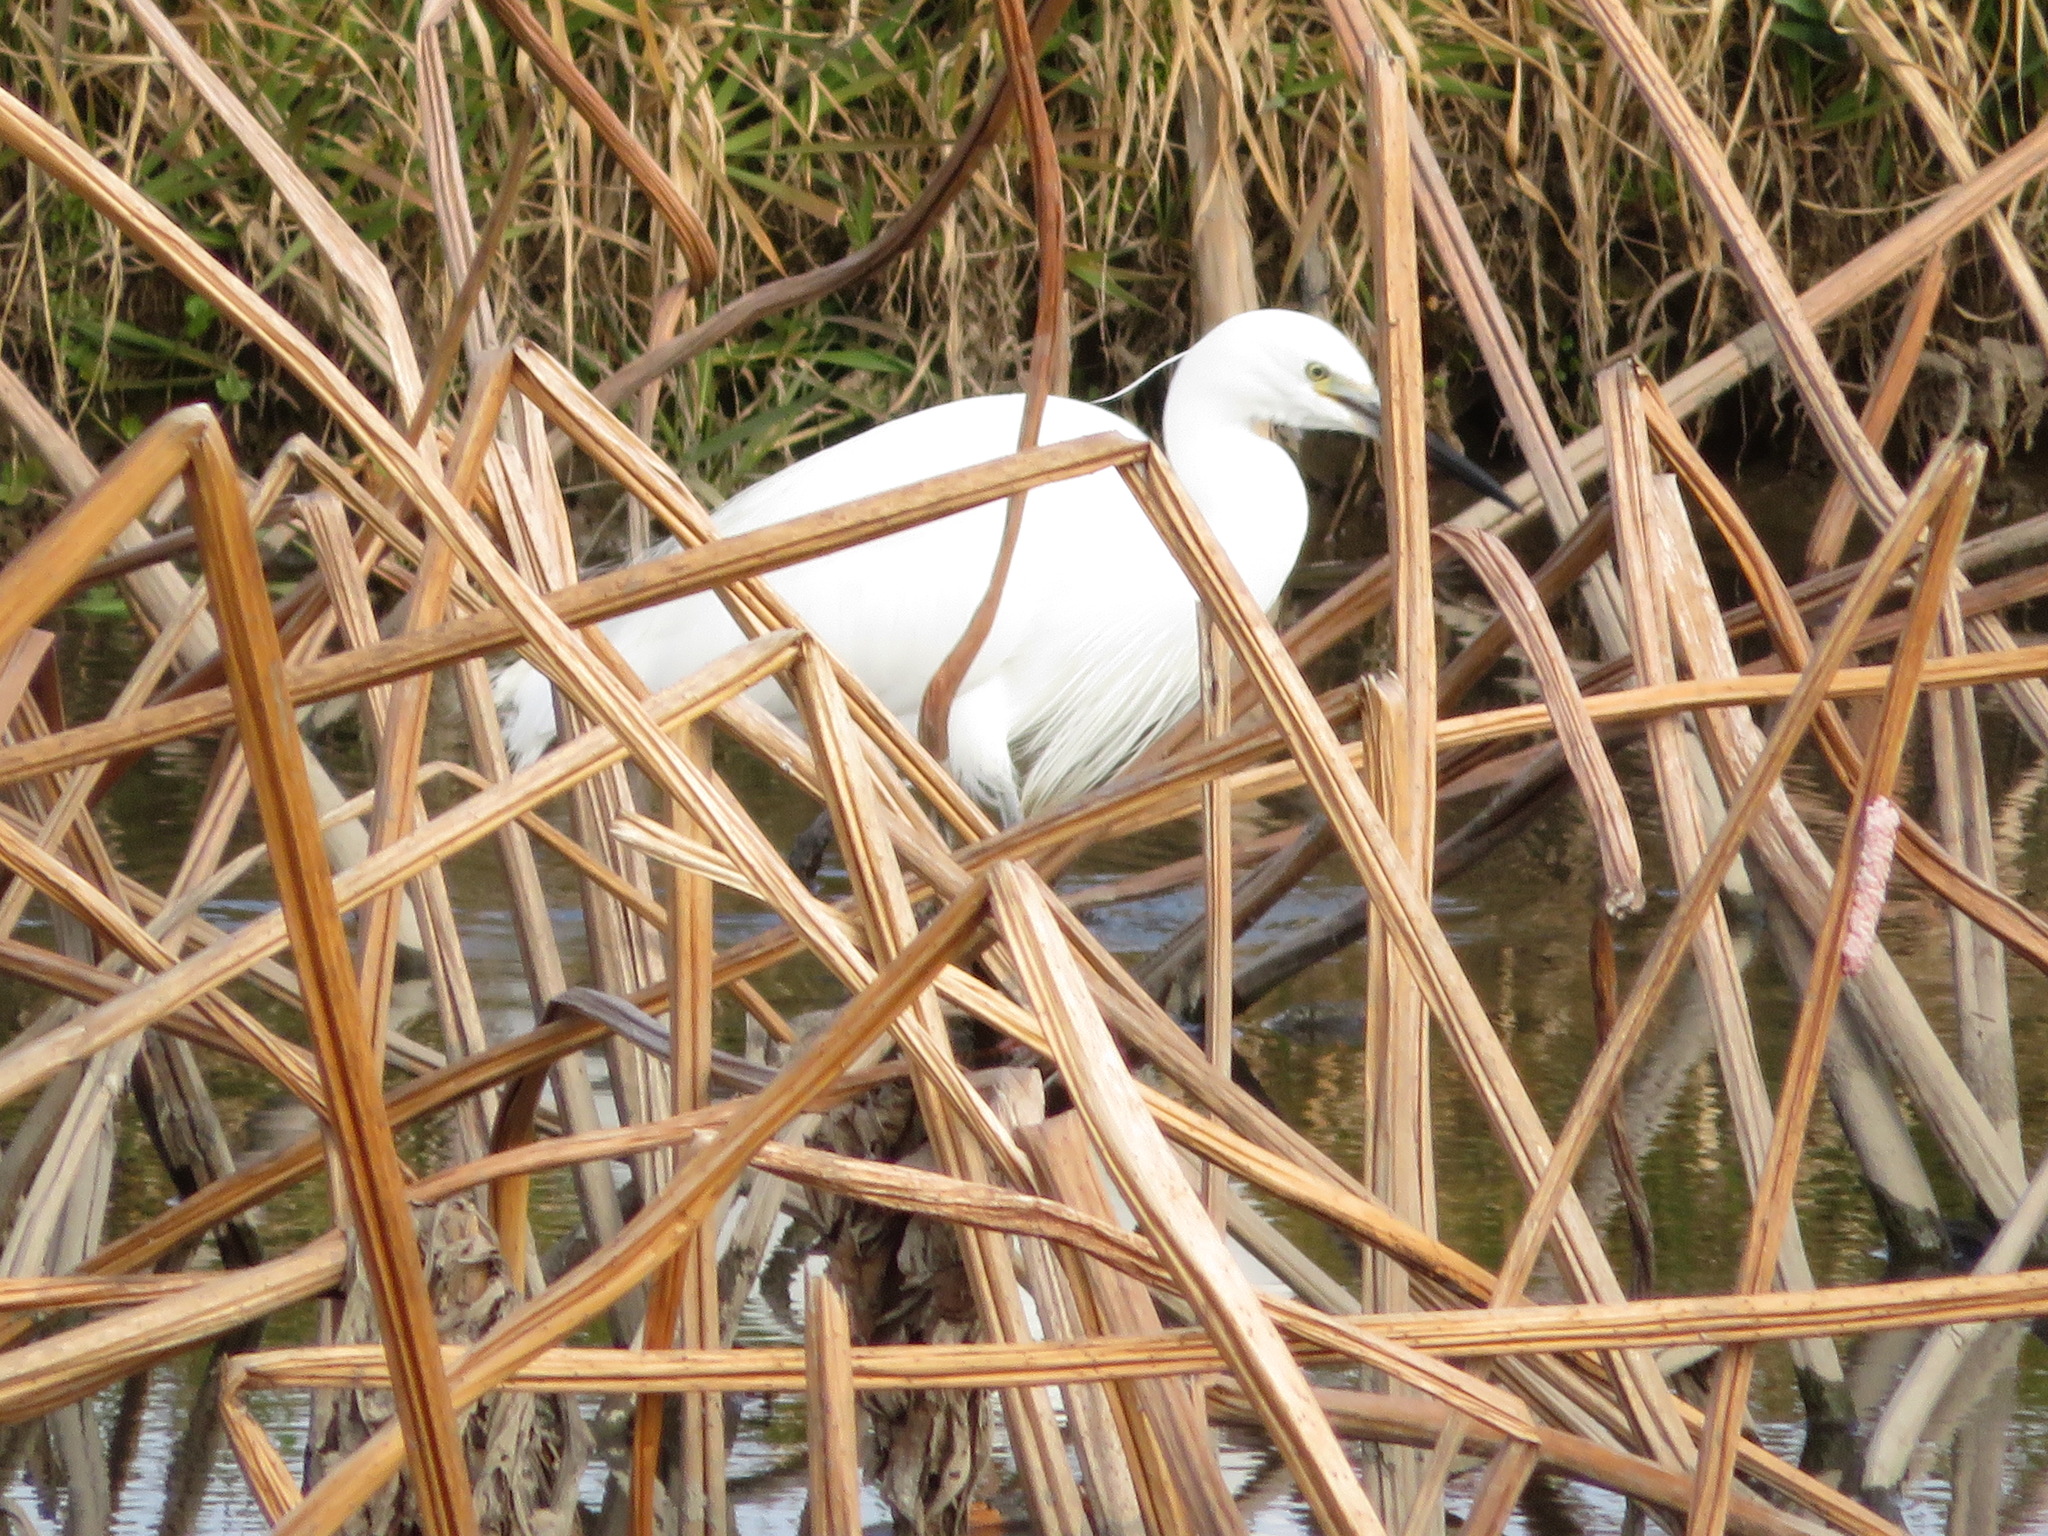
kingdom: Animalia
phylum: Chordata
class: Aves
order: Pelecaniformes
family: Ardeidae
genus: Egretta
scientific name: Egretta garzetta
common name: Little egret
